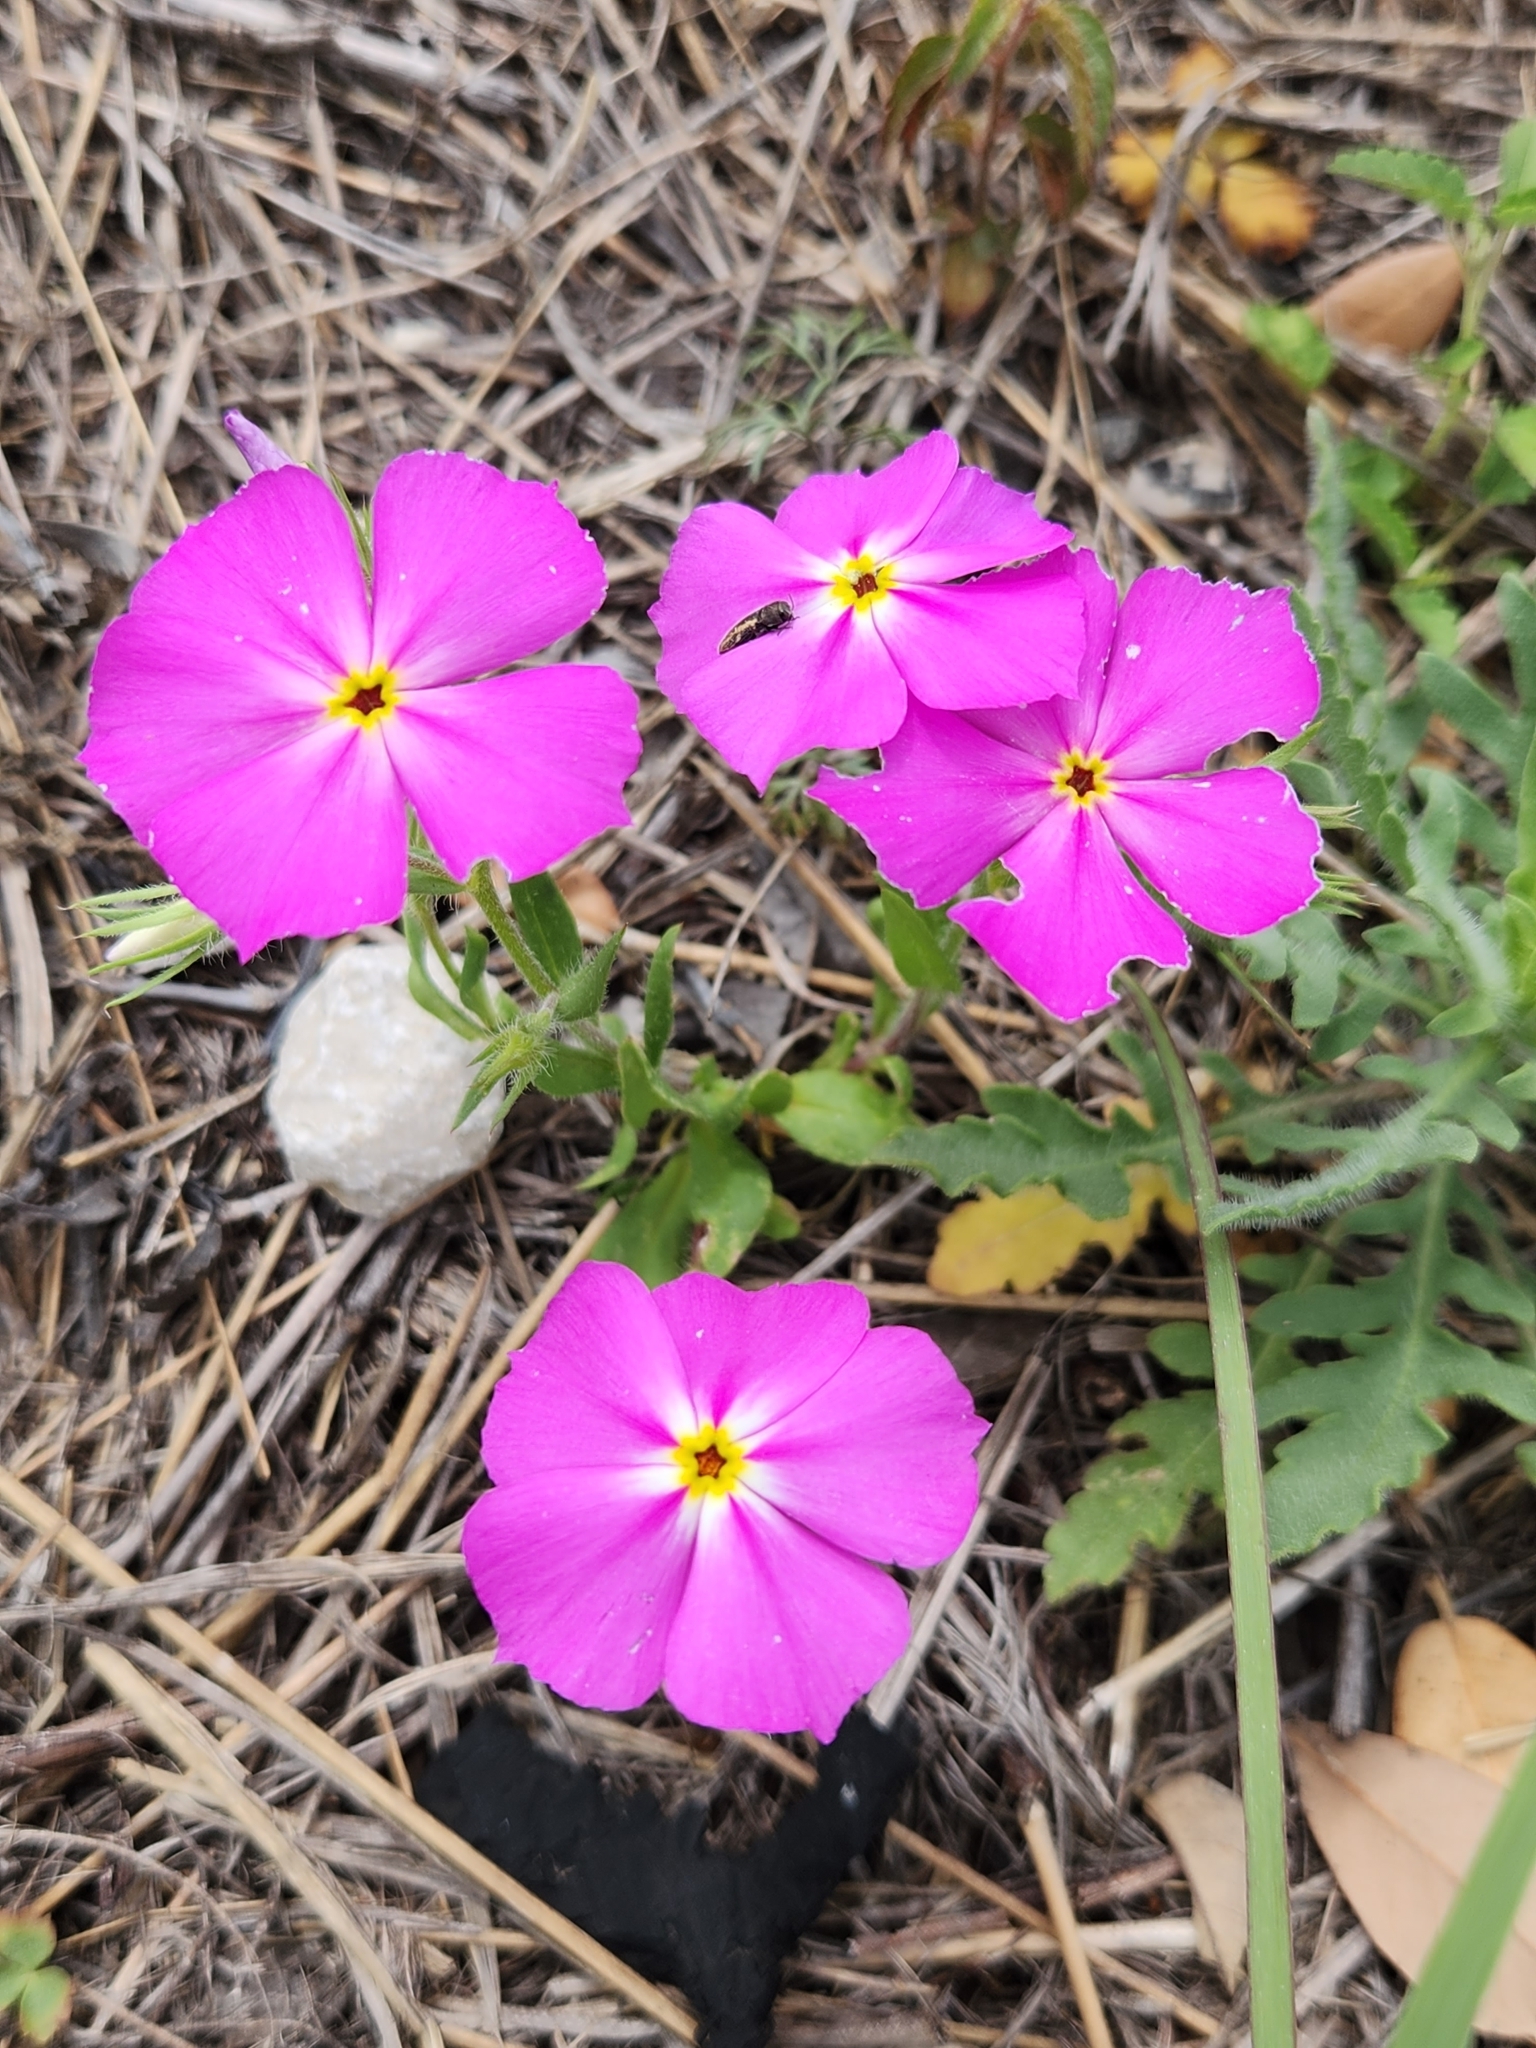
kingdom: Plantae
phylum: Tracheophyta
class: Magnoliopsida
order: Ericales
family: Polemoniaceae
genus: Phlox
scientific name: Phlox roemeriana
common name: Roemer's phlox
